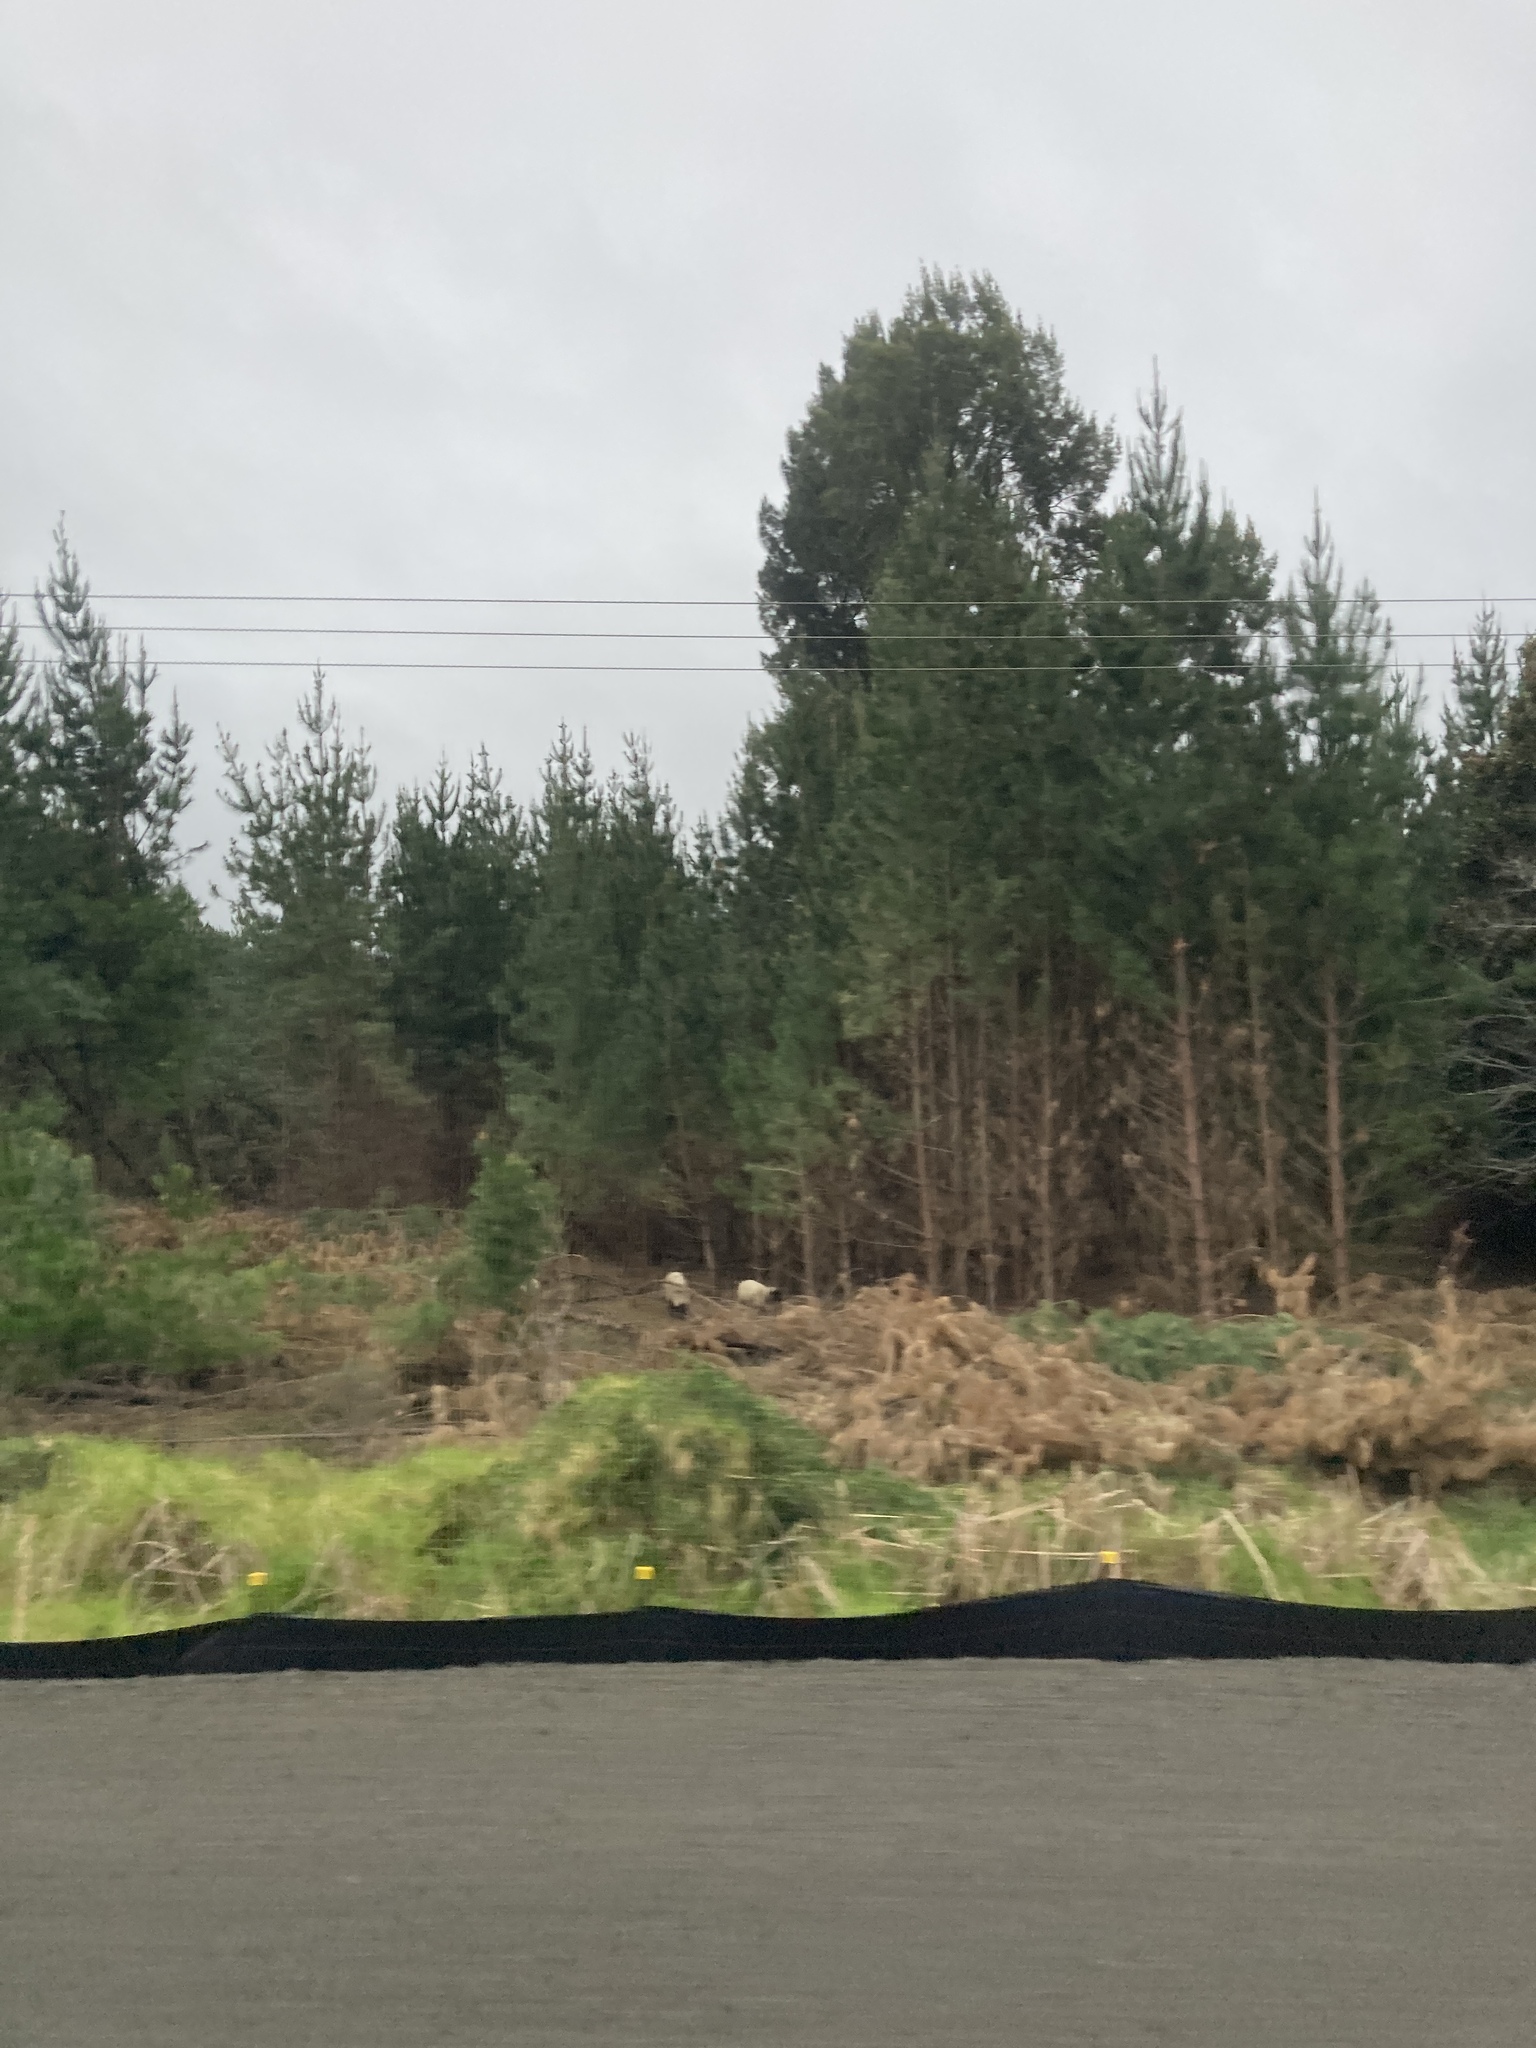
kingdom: Plantae
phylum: Tracheophyta
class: Pinopsida
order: Pinales
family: Pinaceae
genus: Pinus
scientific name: Pinus radiata
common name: Monterey pine
